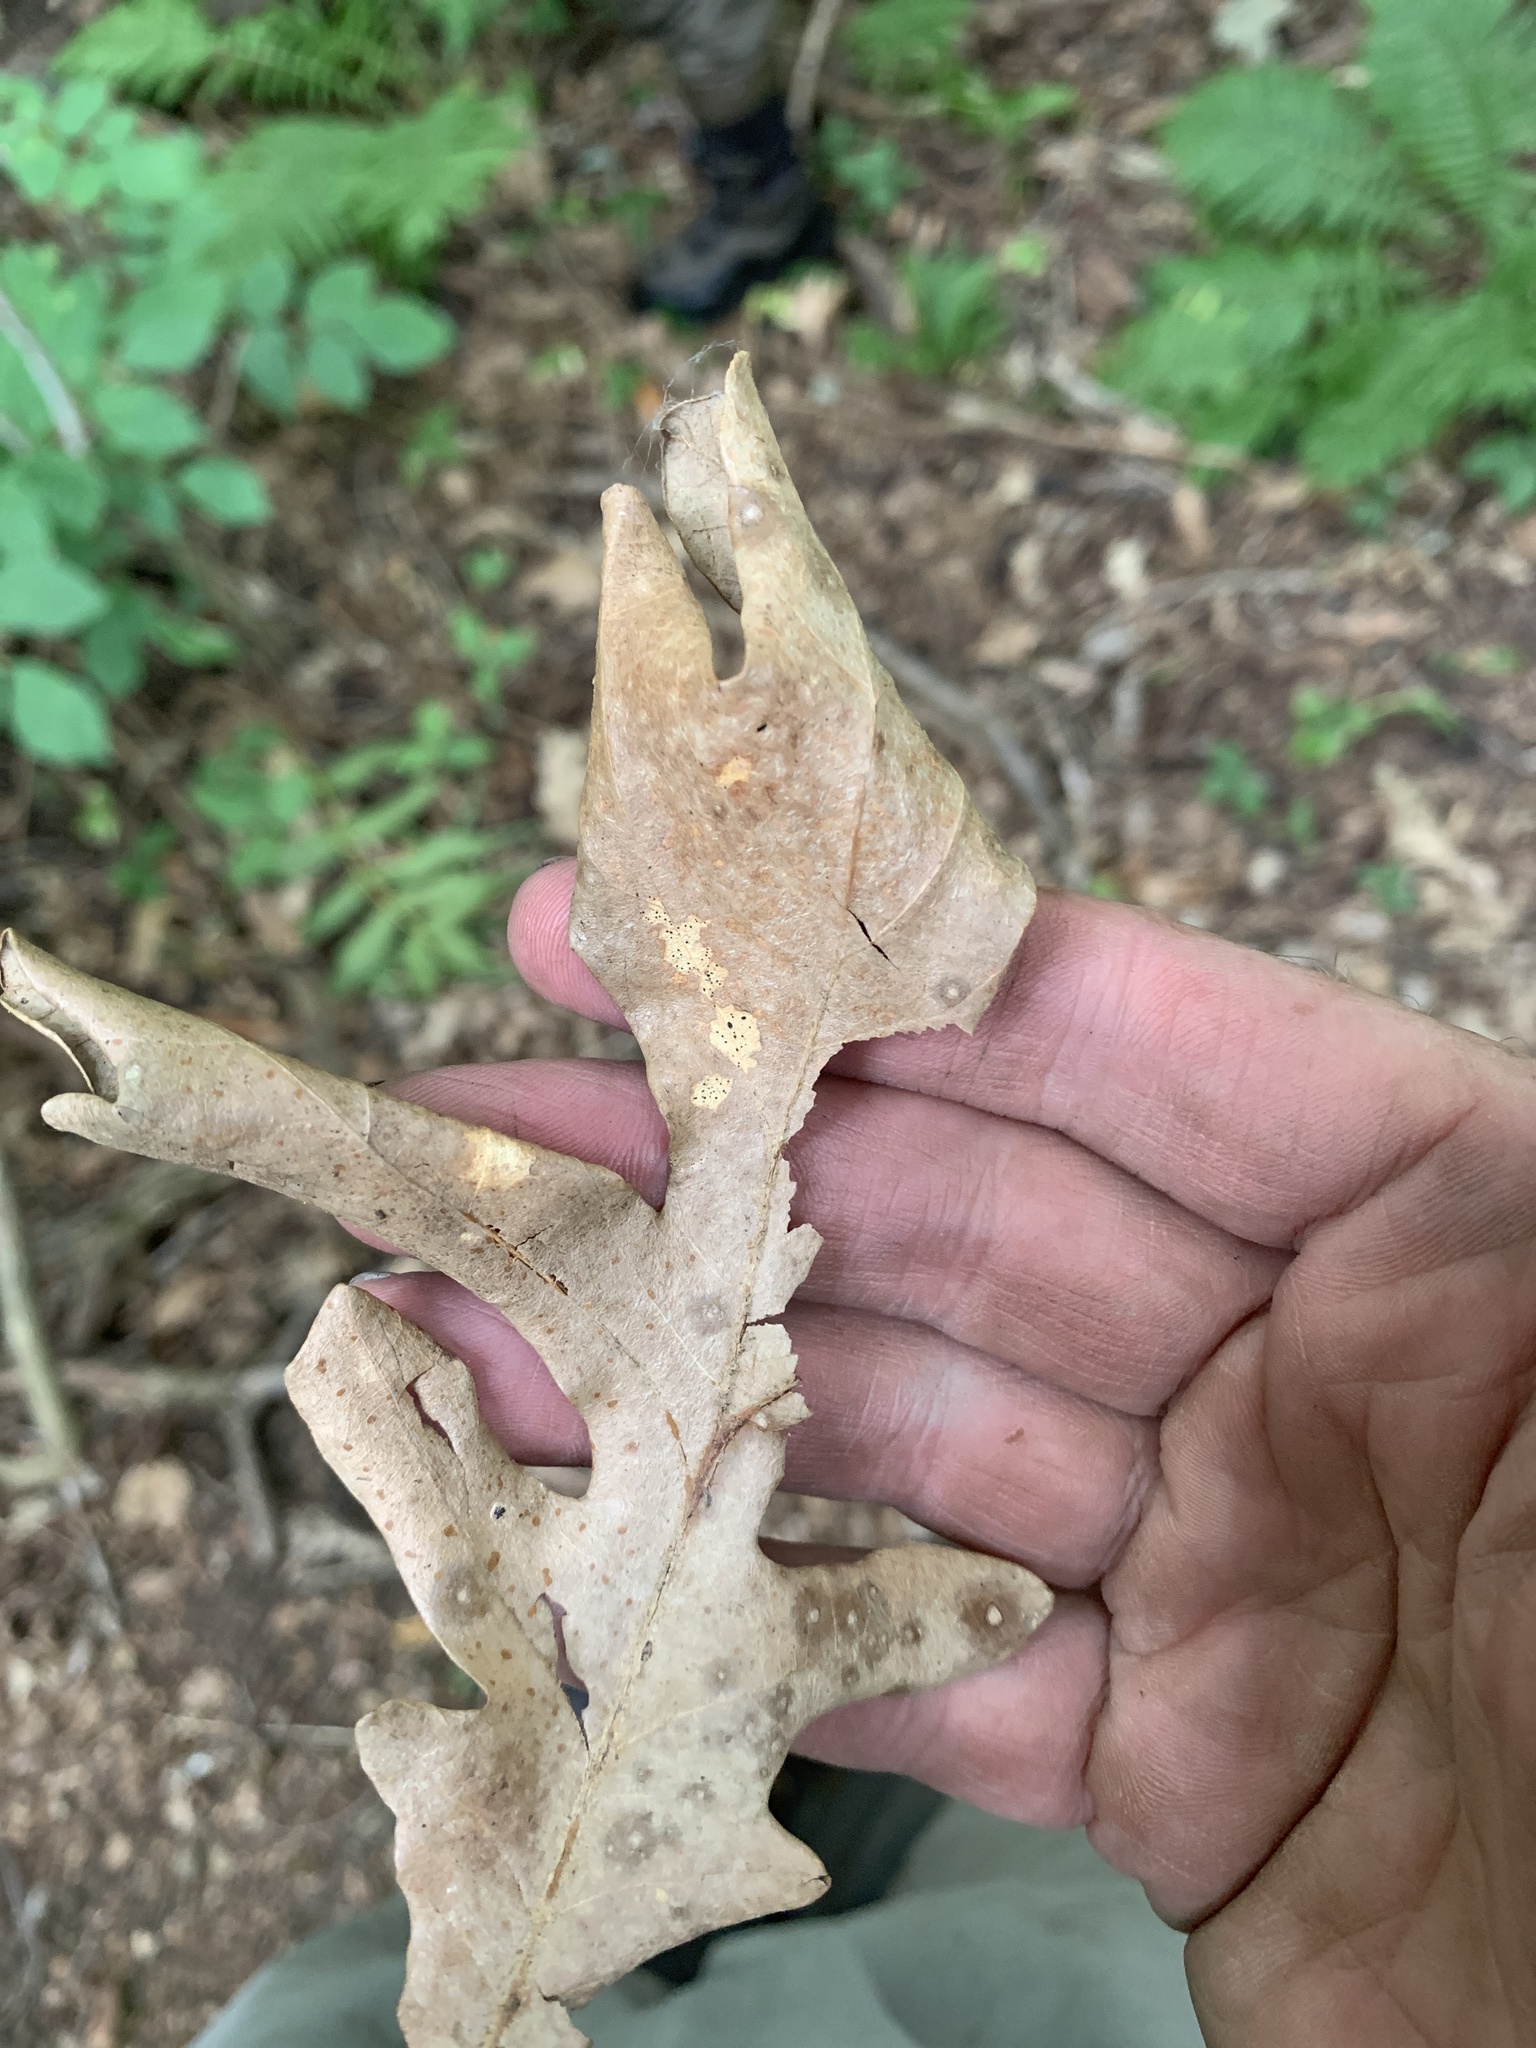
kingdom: Plantae
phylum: Tracheophyta
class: Magnoliopsida
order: Fagales
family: Fagaceae
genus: Quercus
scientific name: Quercus alba
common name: White oak
